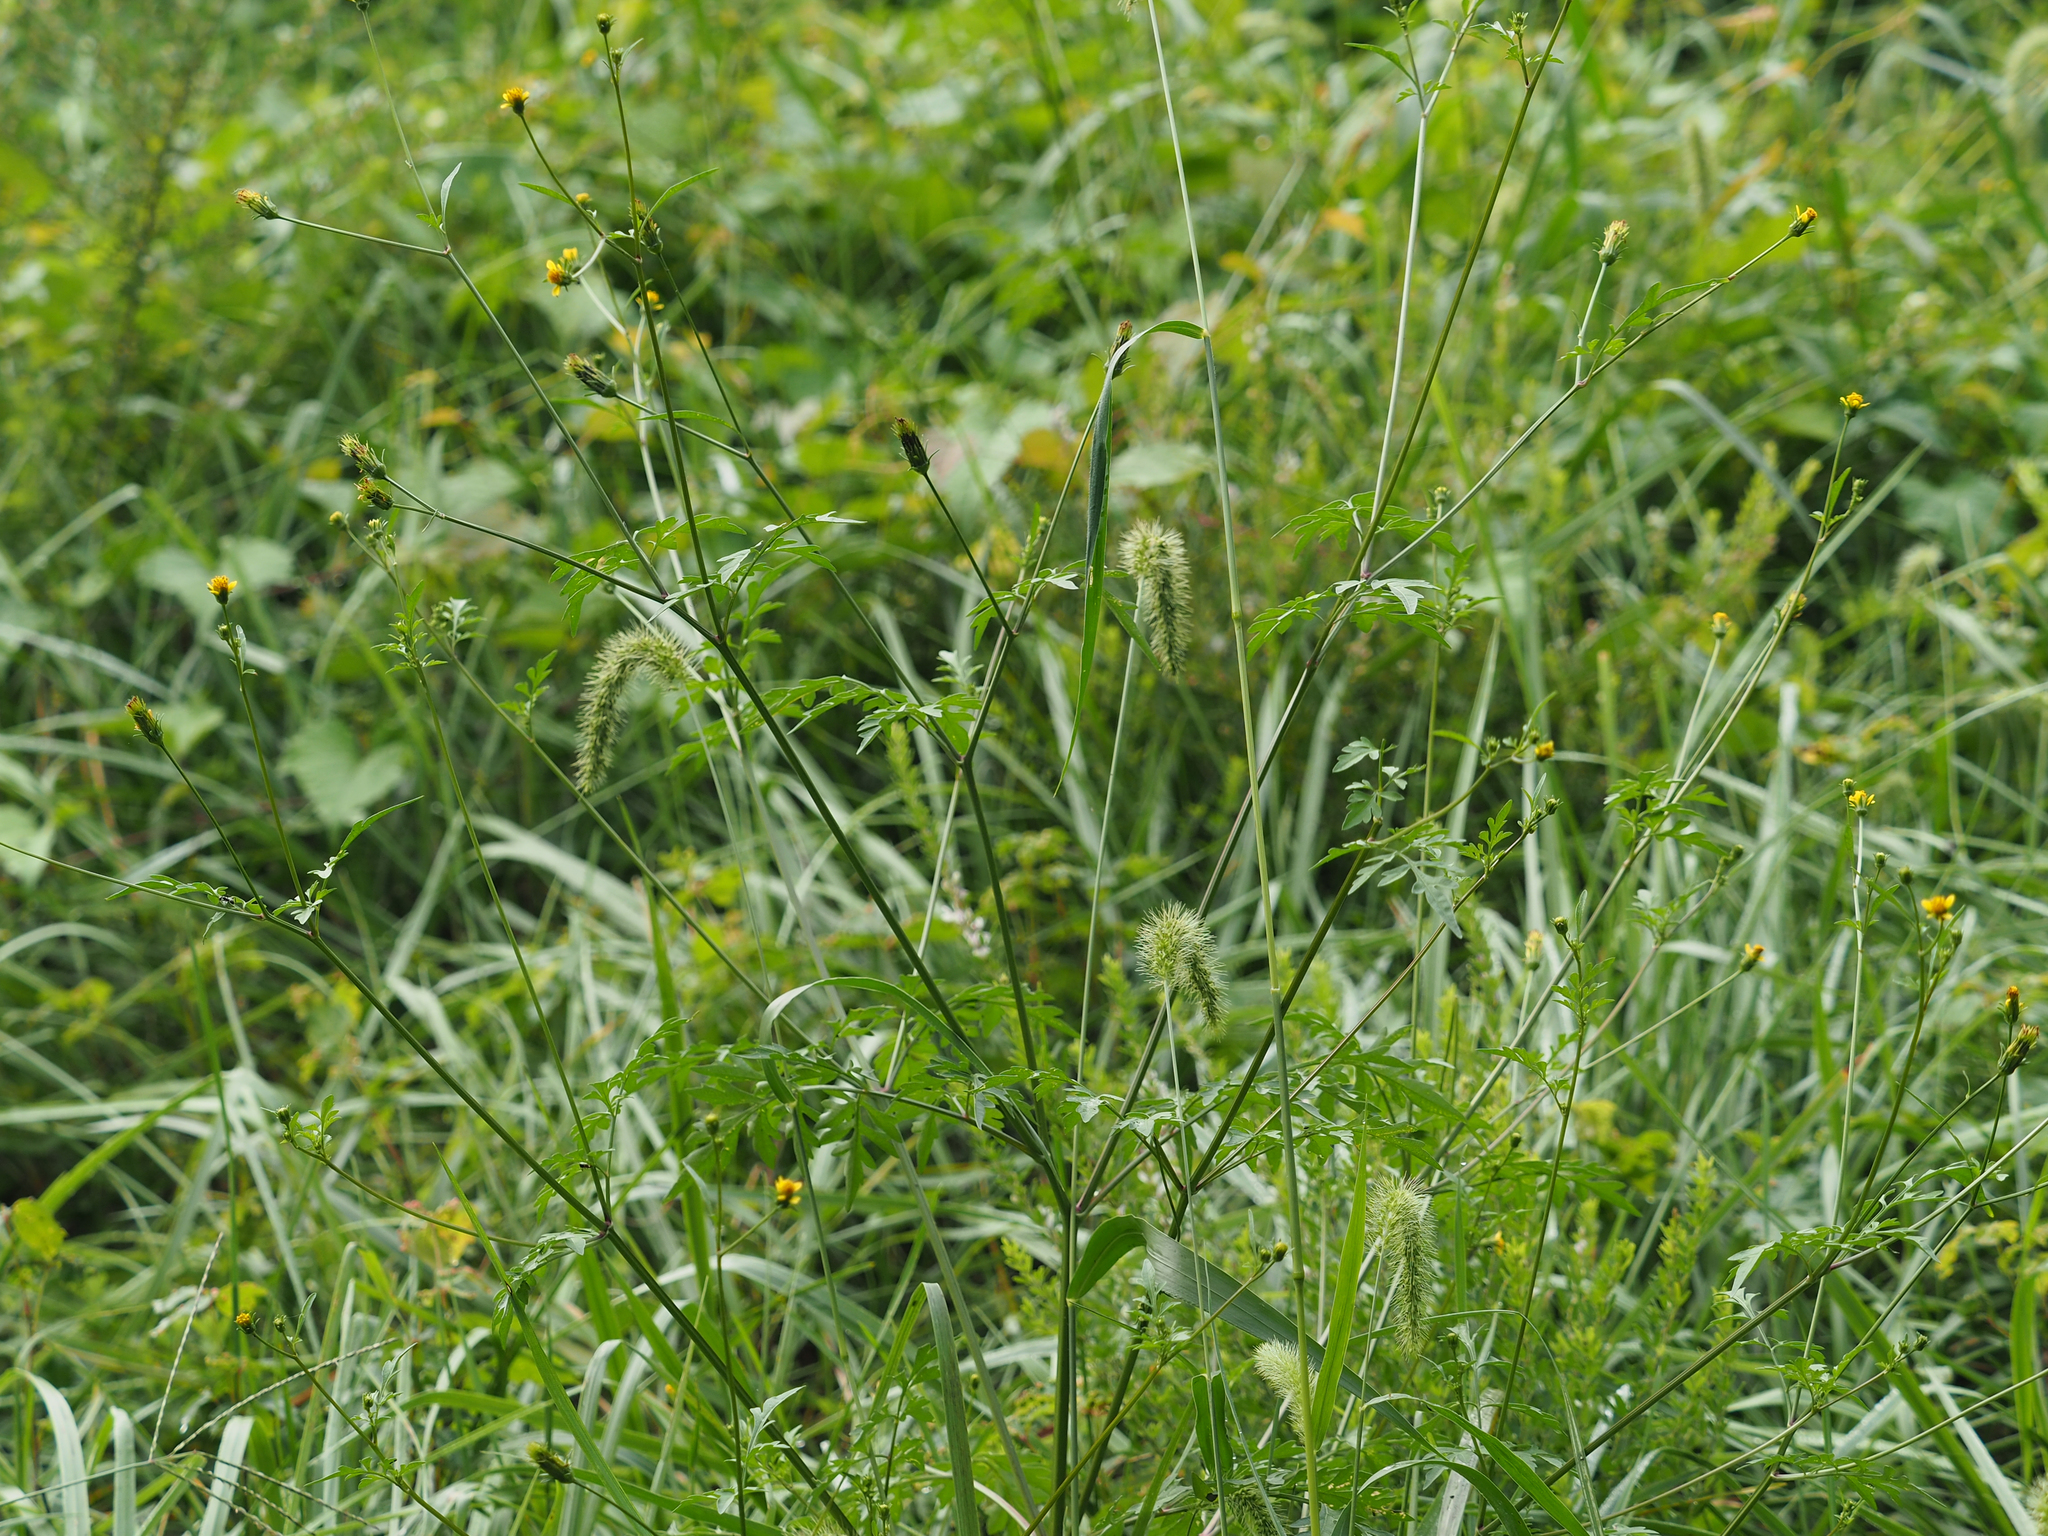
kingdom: Plantae
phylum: Tracheophyta
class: Magnoliopsida
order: Asterales
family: Asteraceae
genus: Bidens
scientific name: Bidens bipinnata
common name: Spanish-needles
